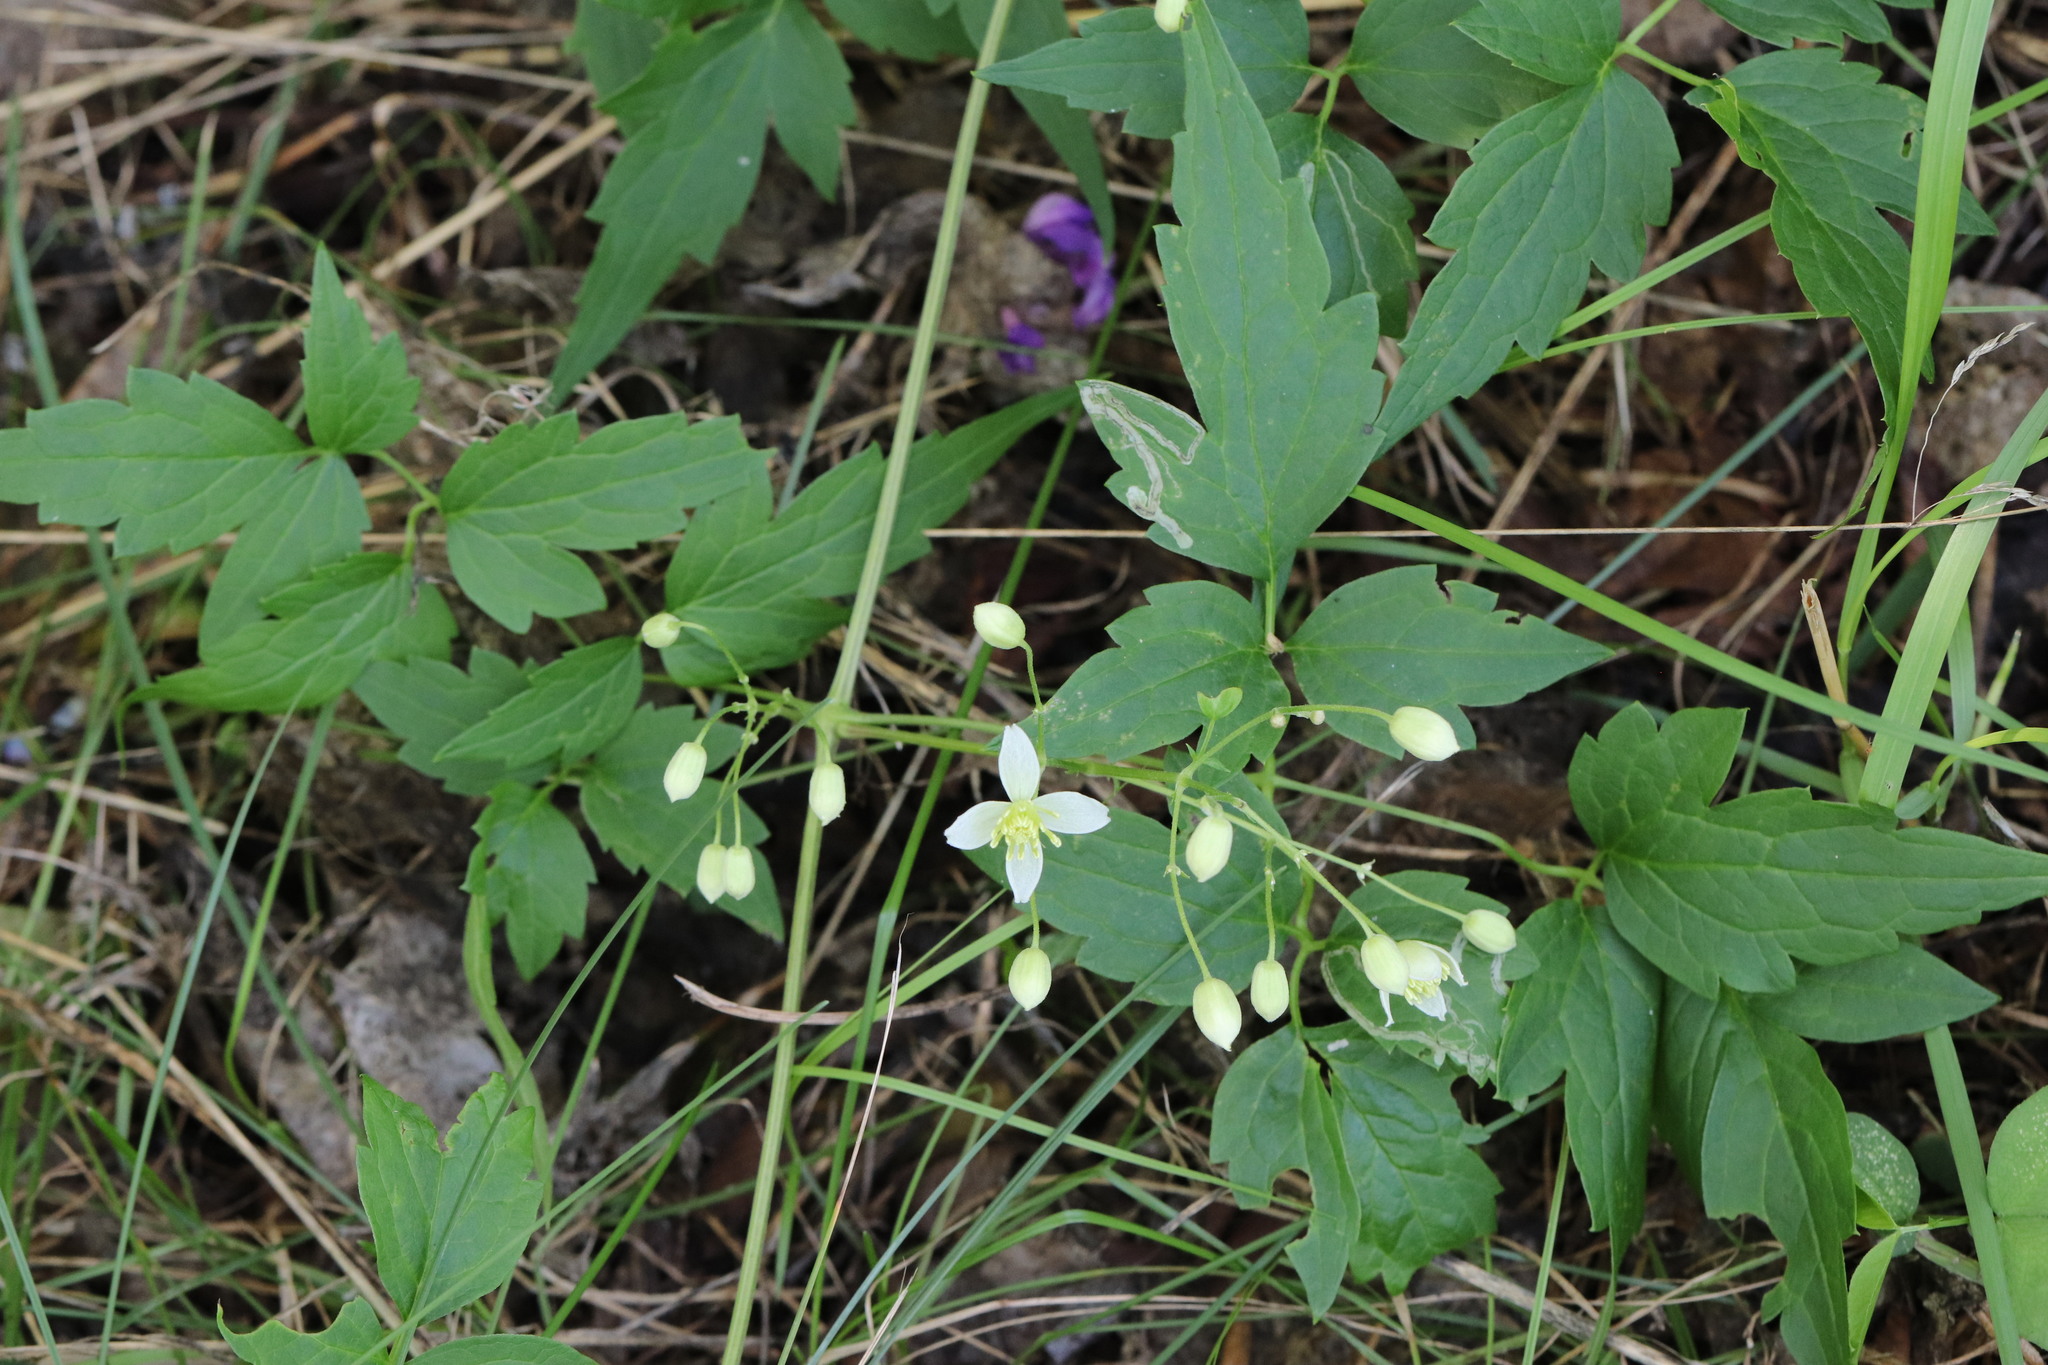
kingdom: Plantae
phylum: Tracheophyta
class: Magnoliopsida
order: Ranunculales
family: Ranunculaceae
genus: Clematis
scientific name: Clematis brevicaudata
